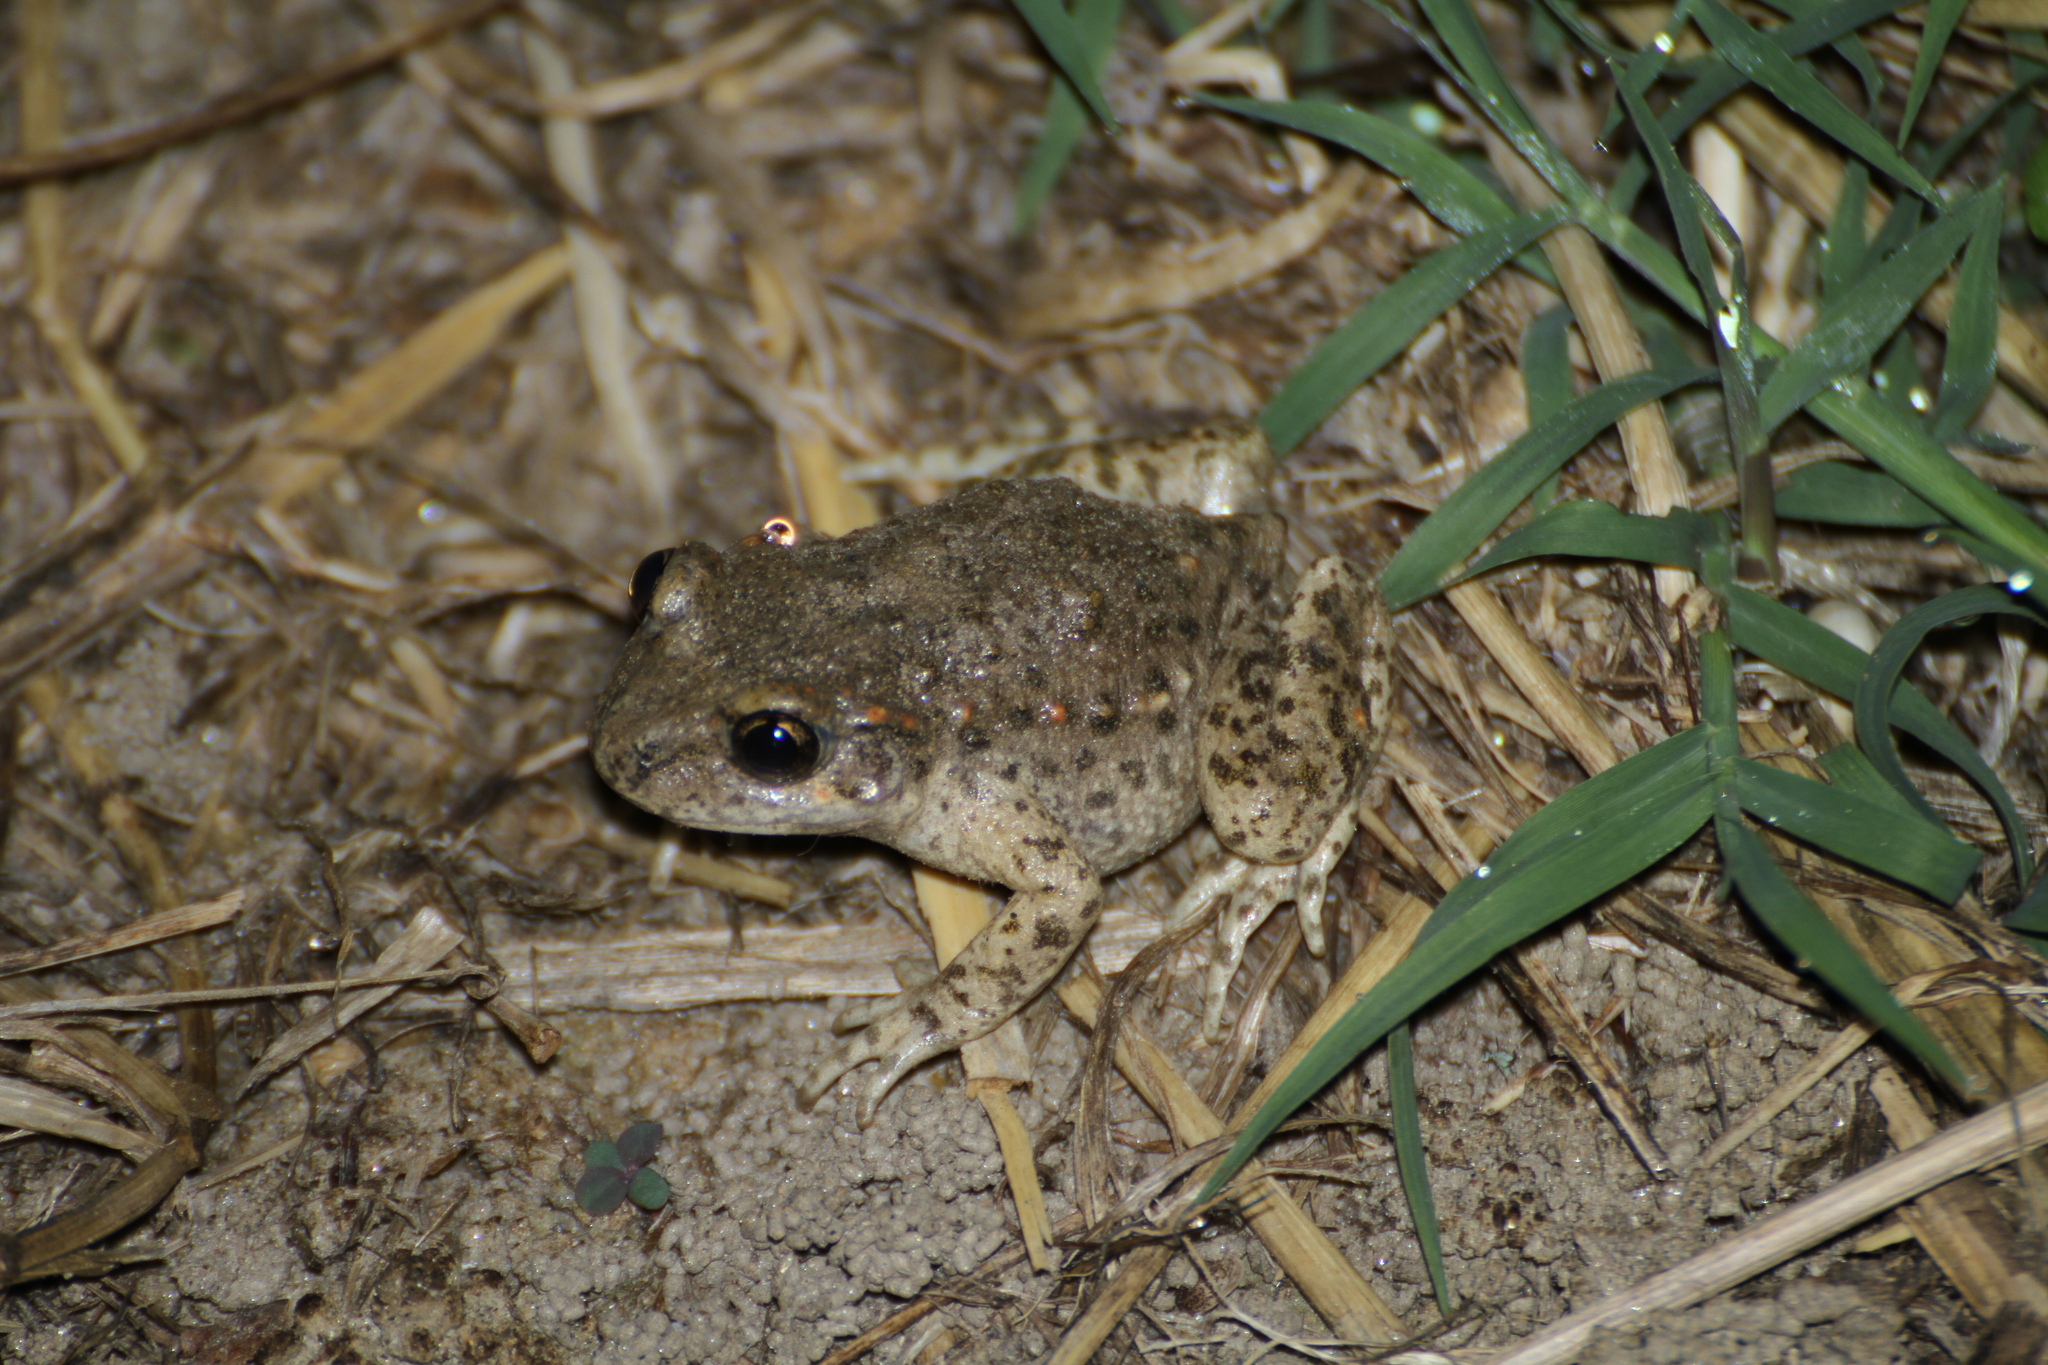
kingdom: Animalia
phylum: Chordata
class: Amphibia
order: Anura
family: Alytidae
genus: Alytes
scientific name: Alytes obstetricans
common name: Midwife toad
